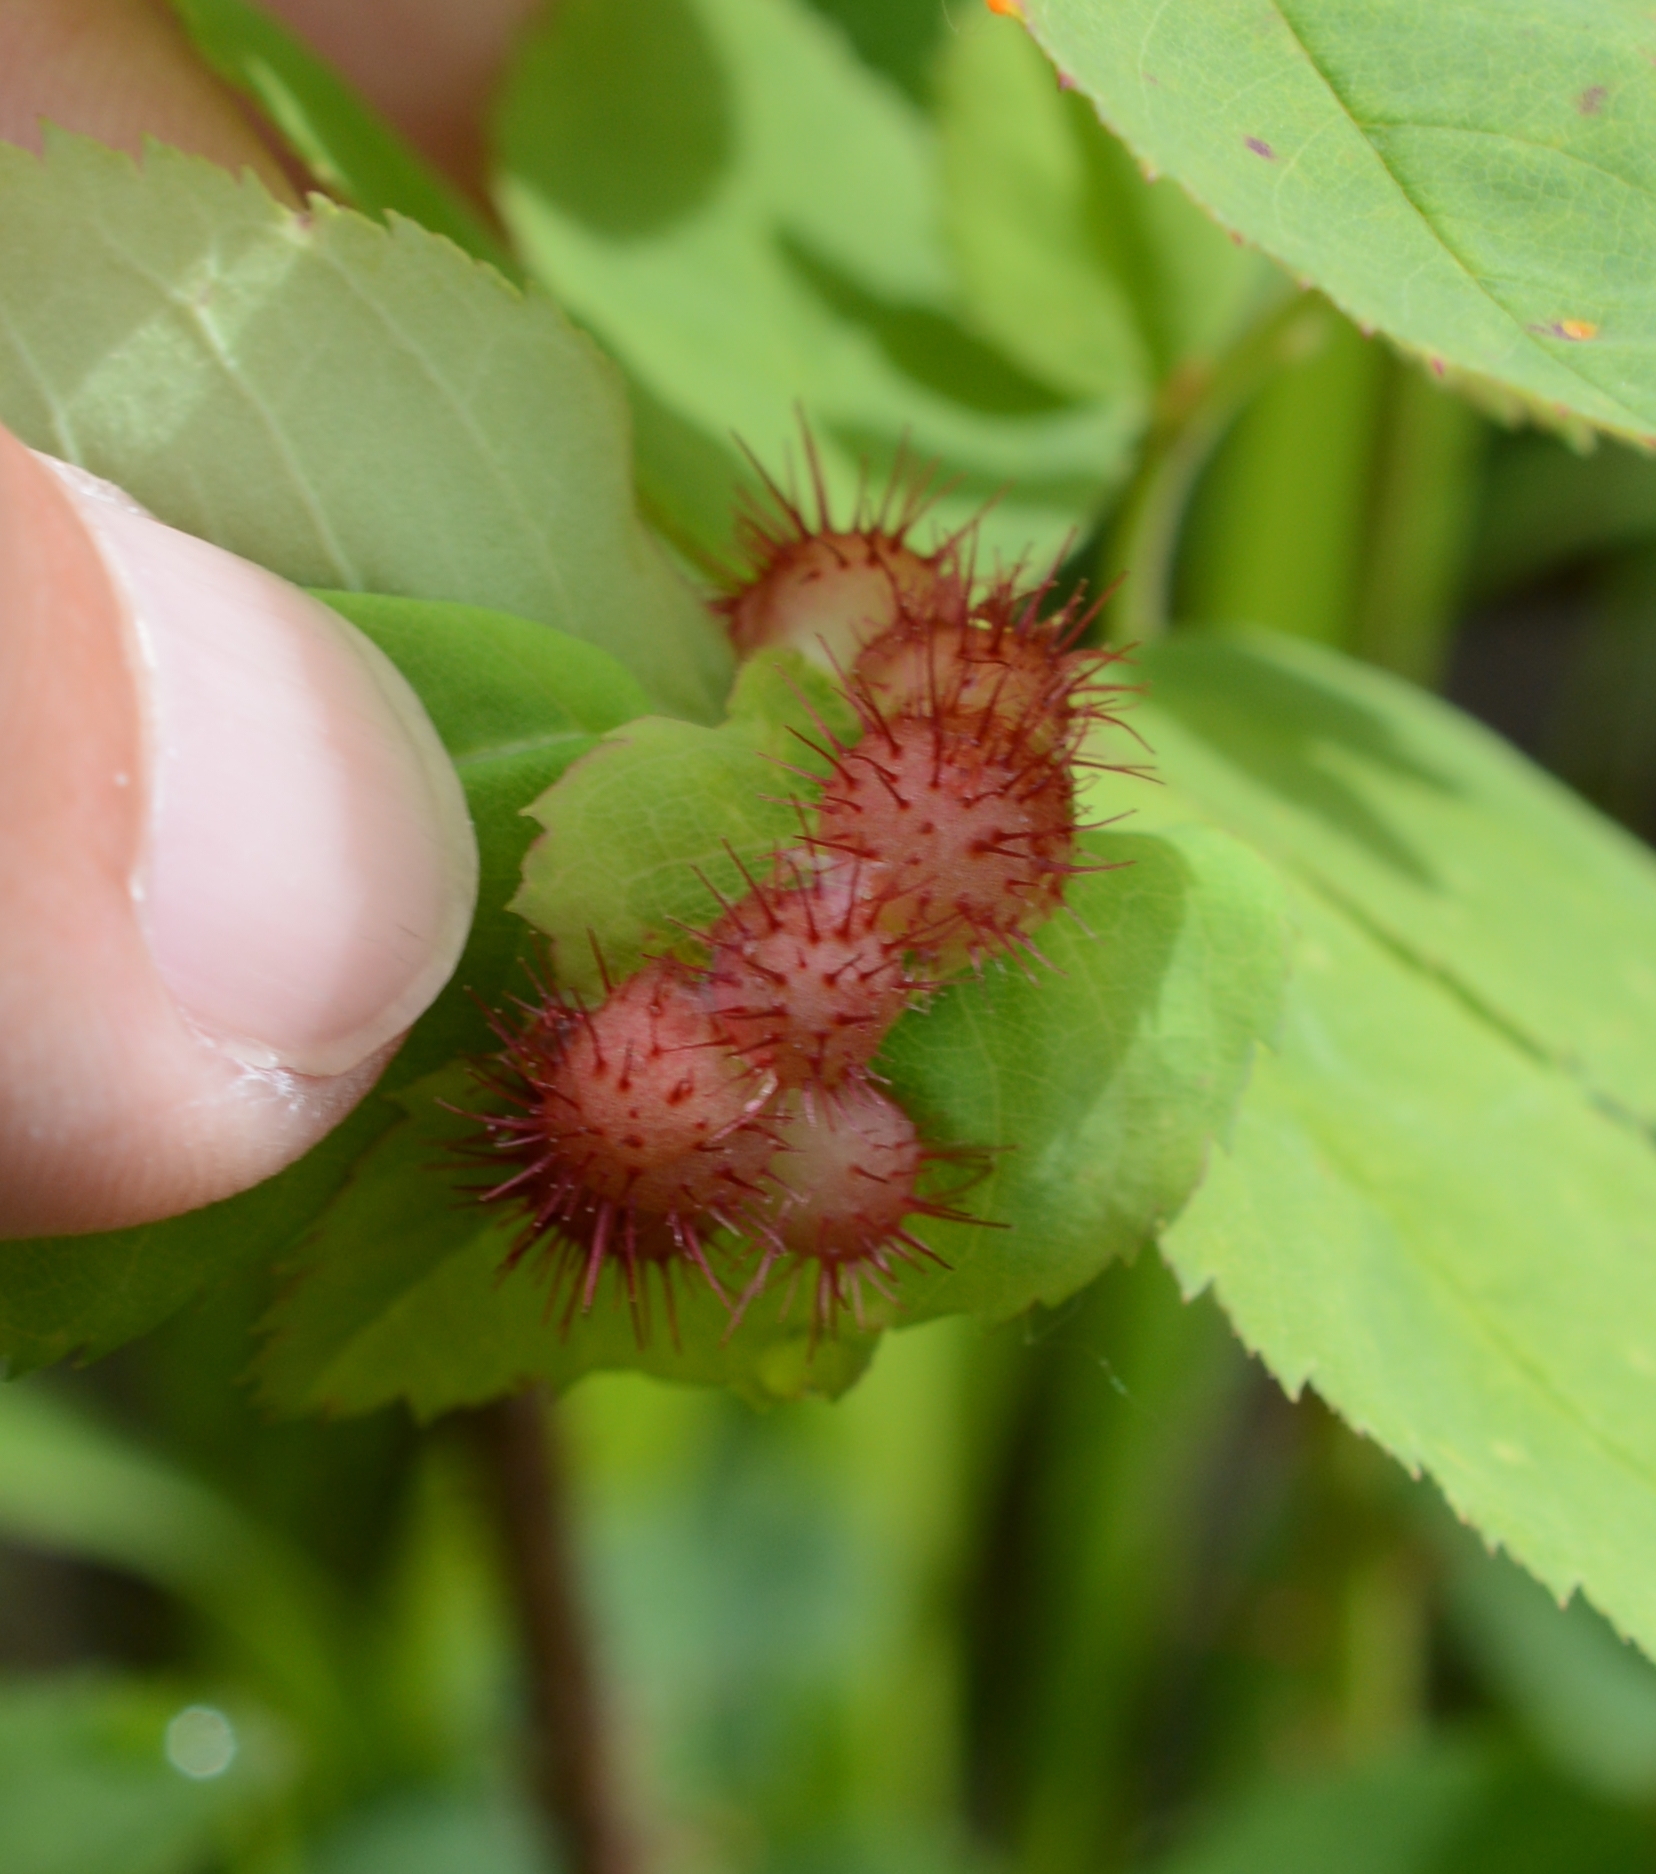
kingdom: Animalia
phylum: Arthropoda
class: Insecta
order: Hymenoptera
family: Cynipidae
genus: Diplolepis
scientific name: Diplolepis polita
